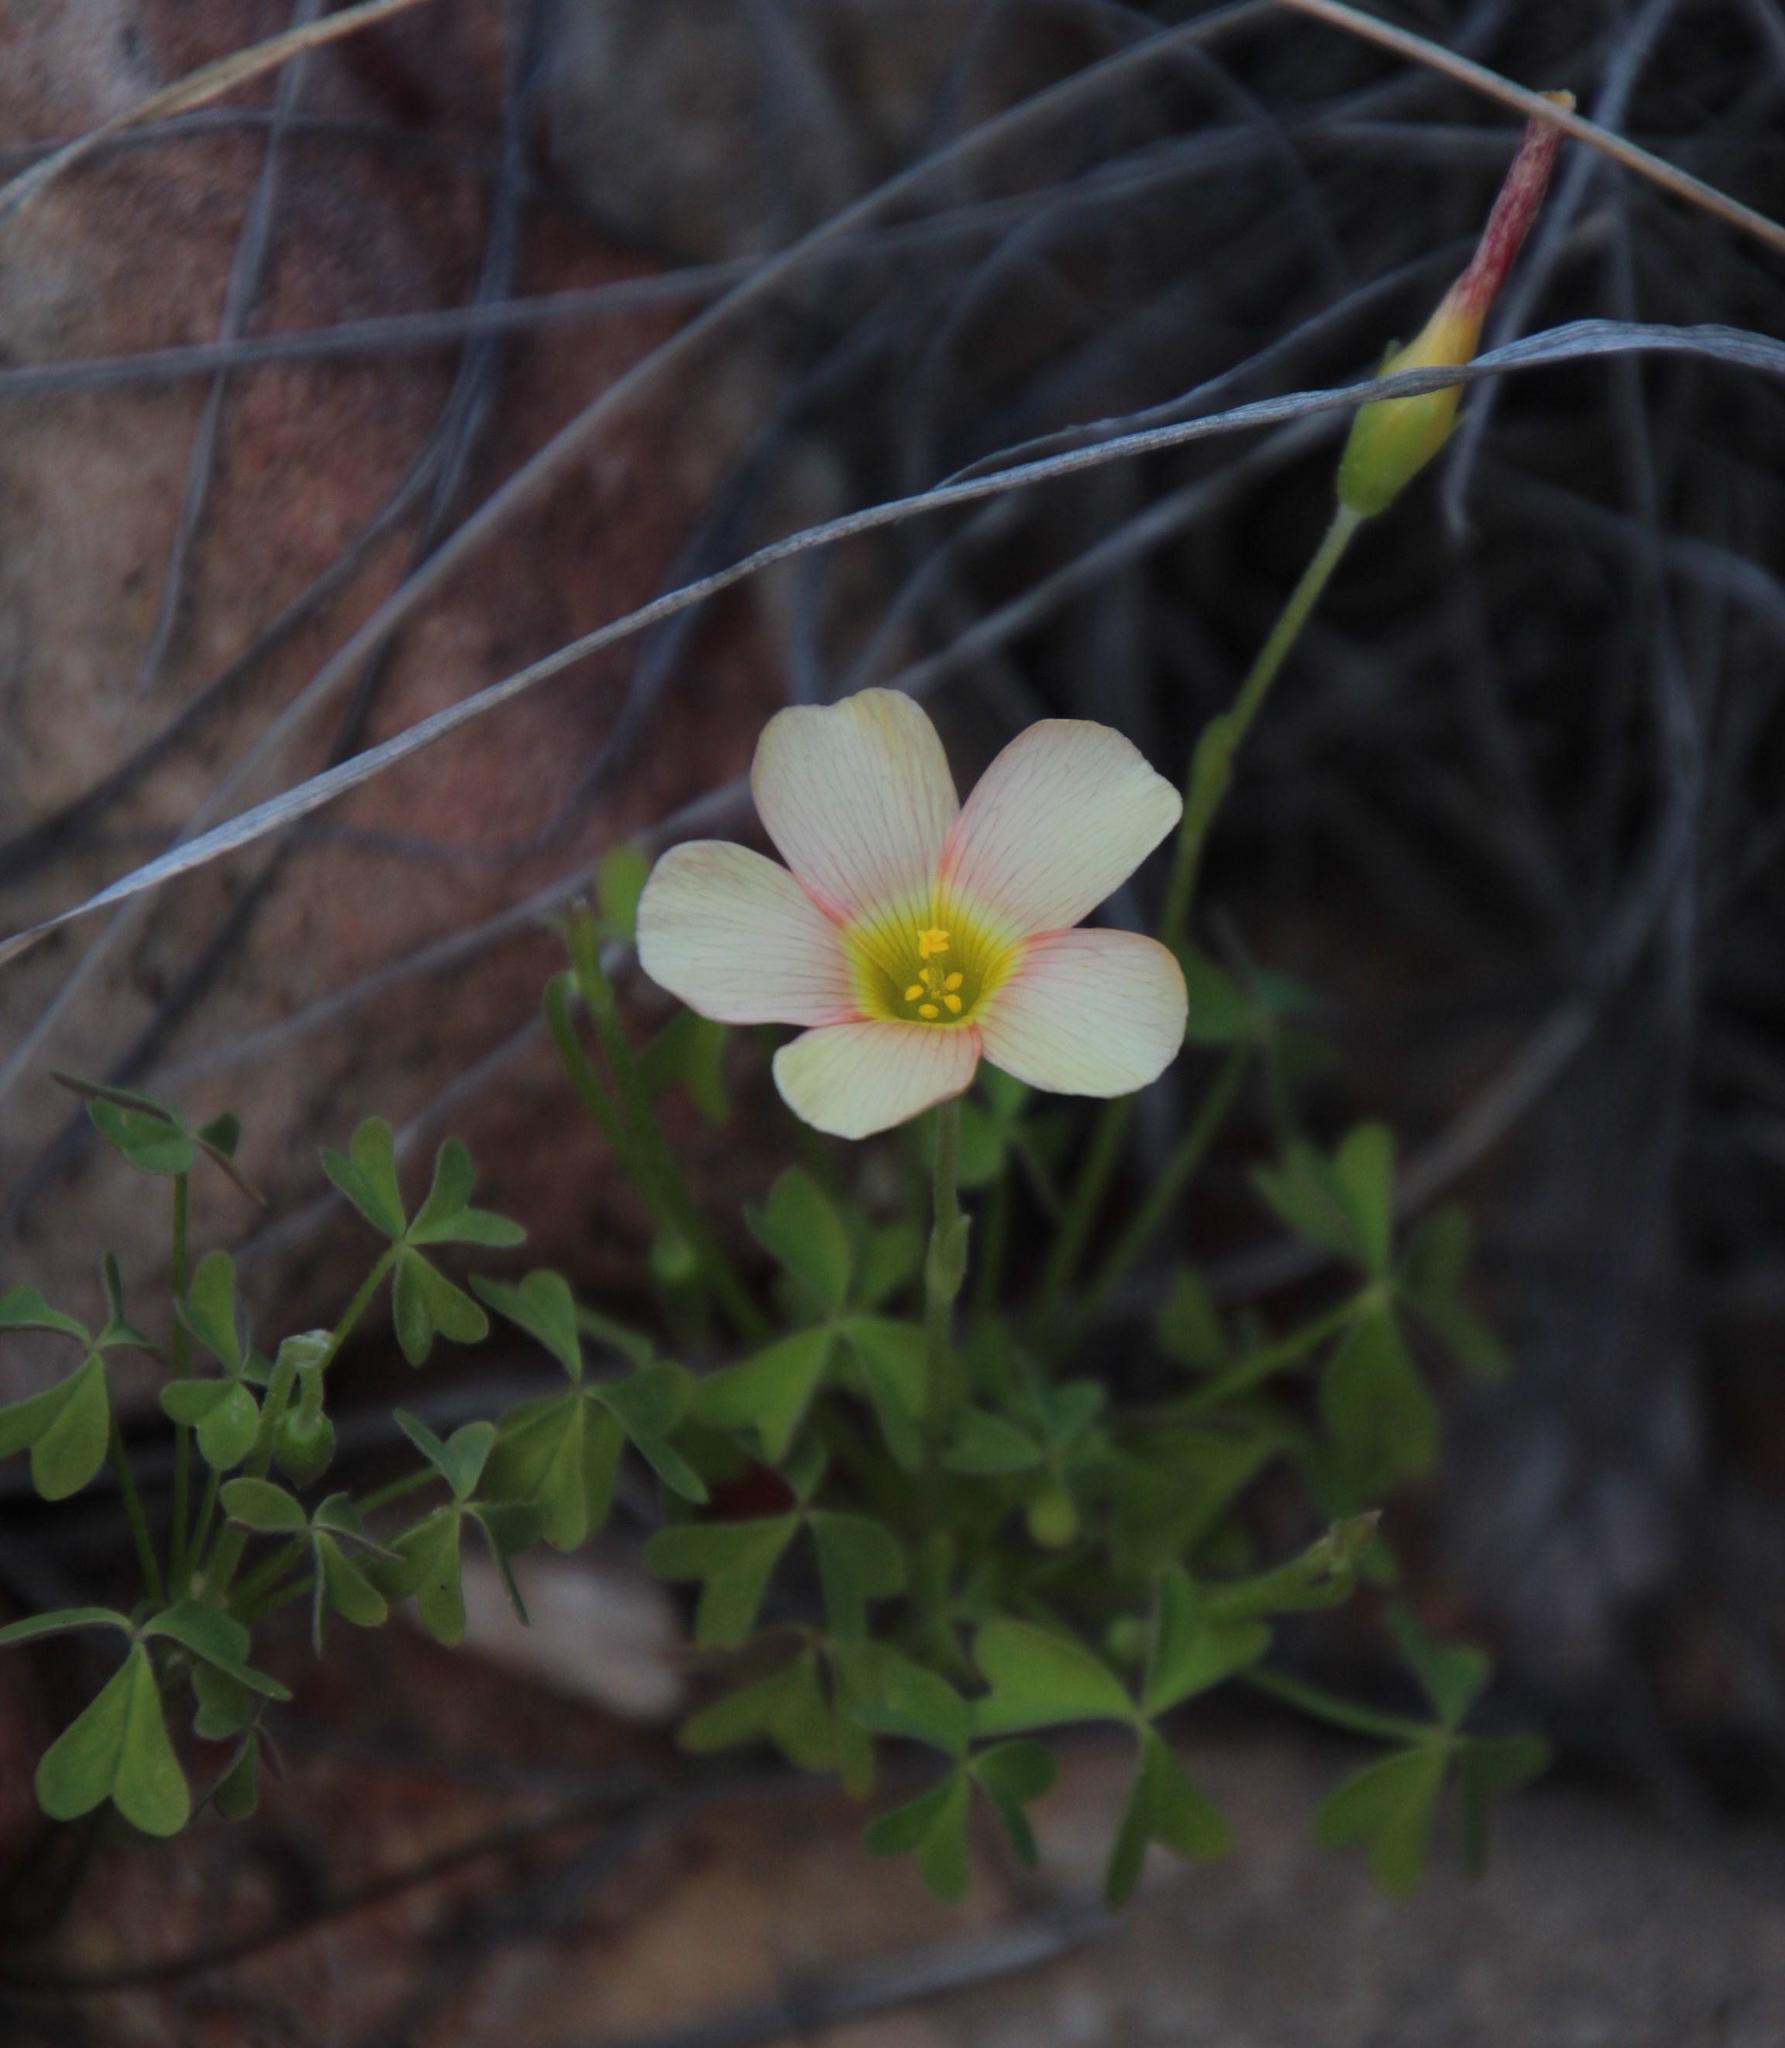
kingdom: Plantae
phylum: Tracheophyta
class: Magnoliopsida
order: Oxalidales
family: Oxalidaceae
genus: Oxalis
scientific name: Oxalis obtusa
